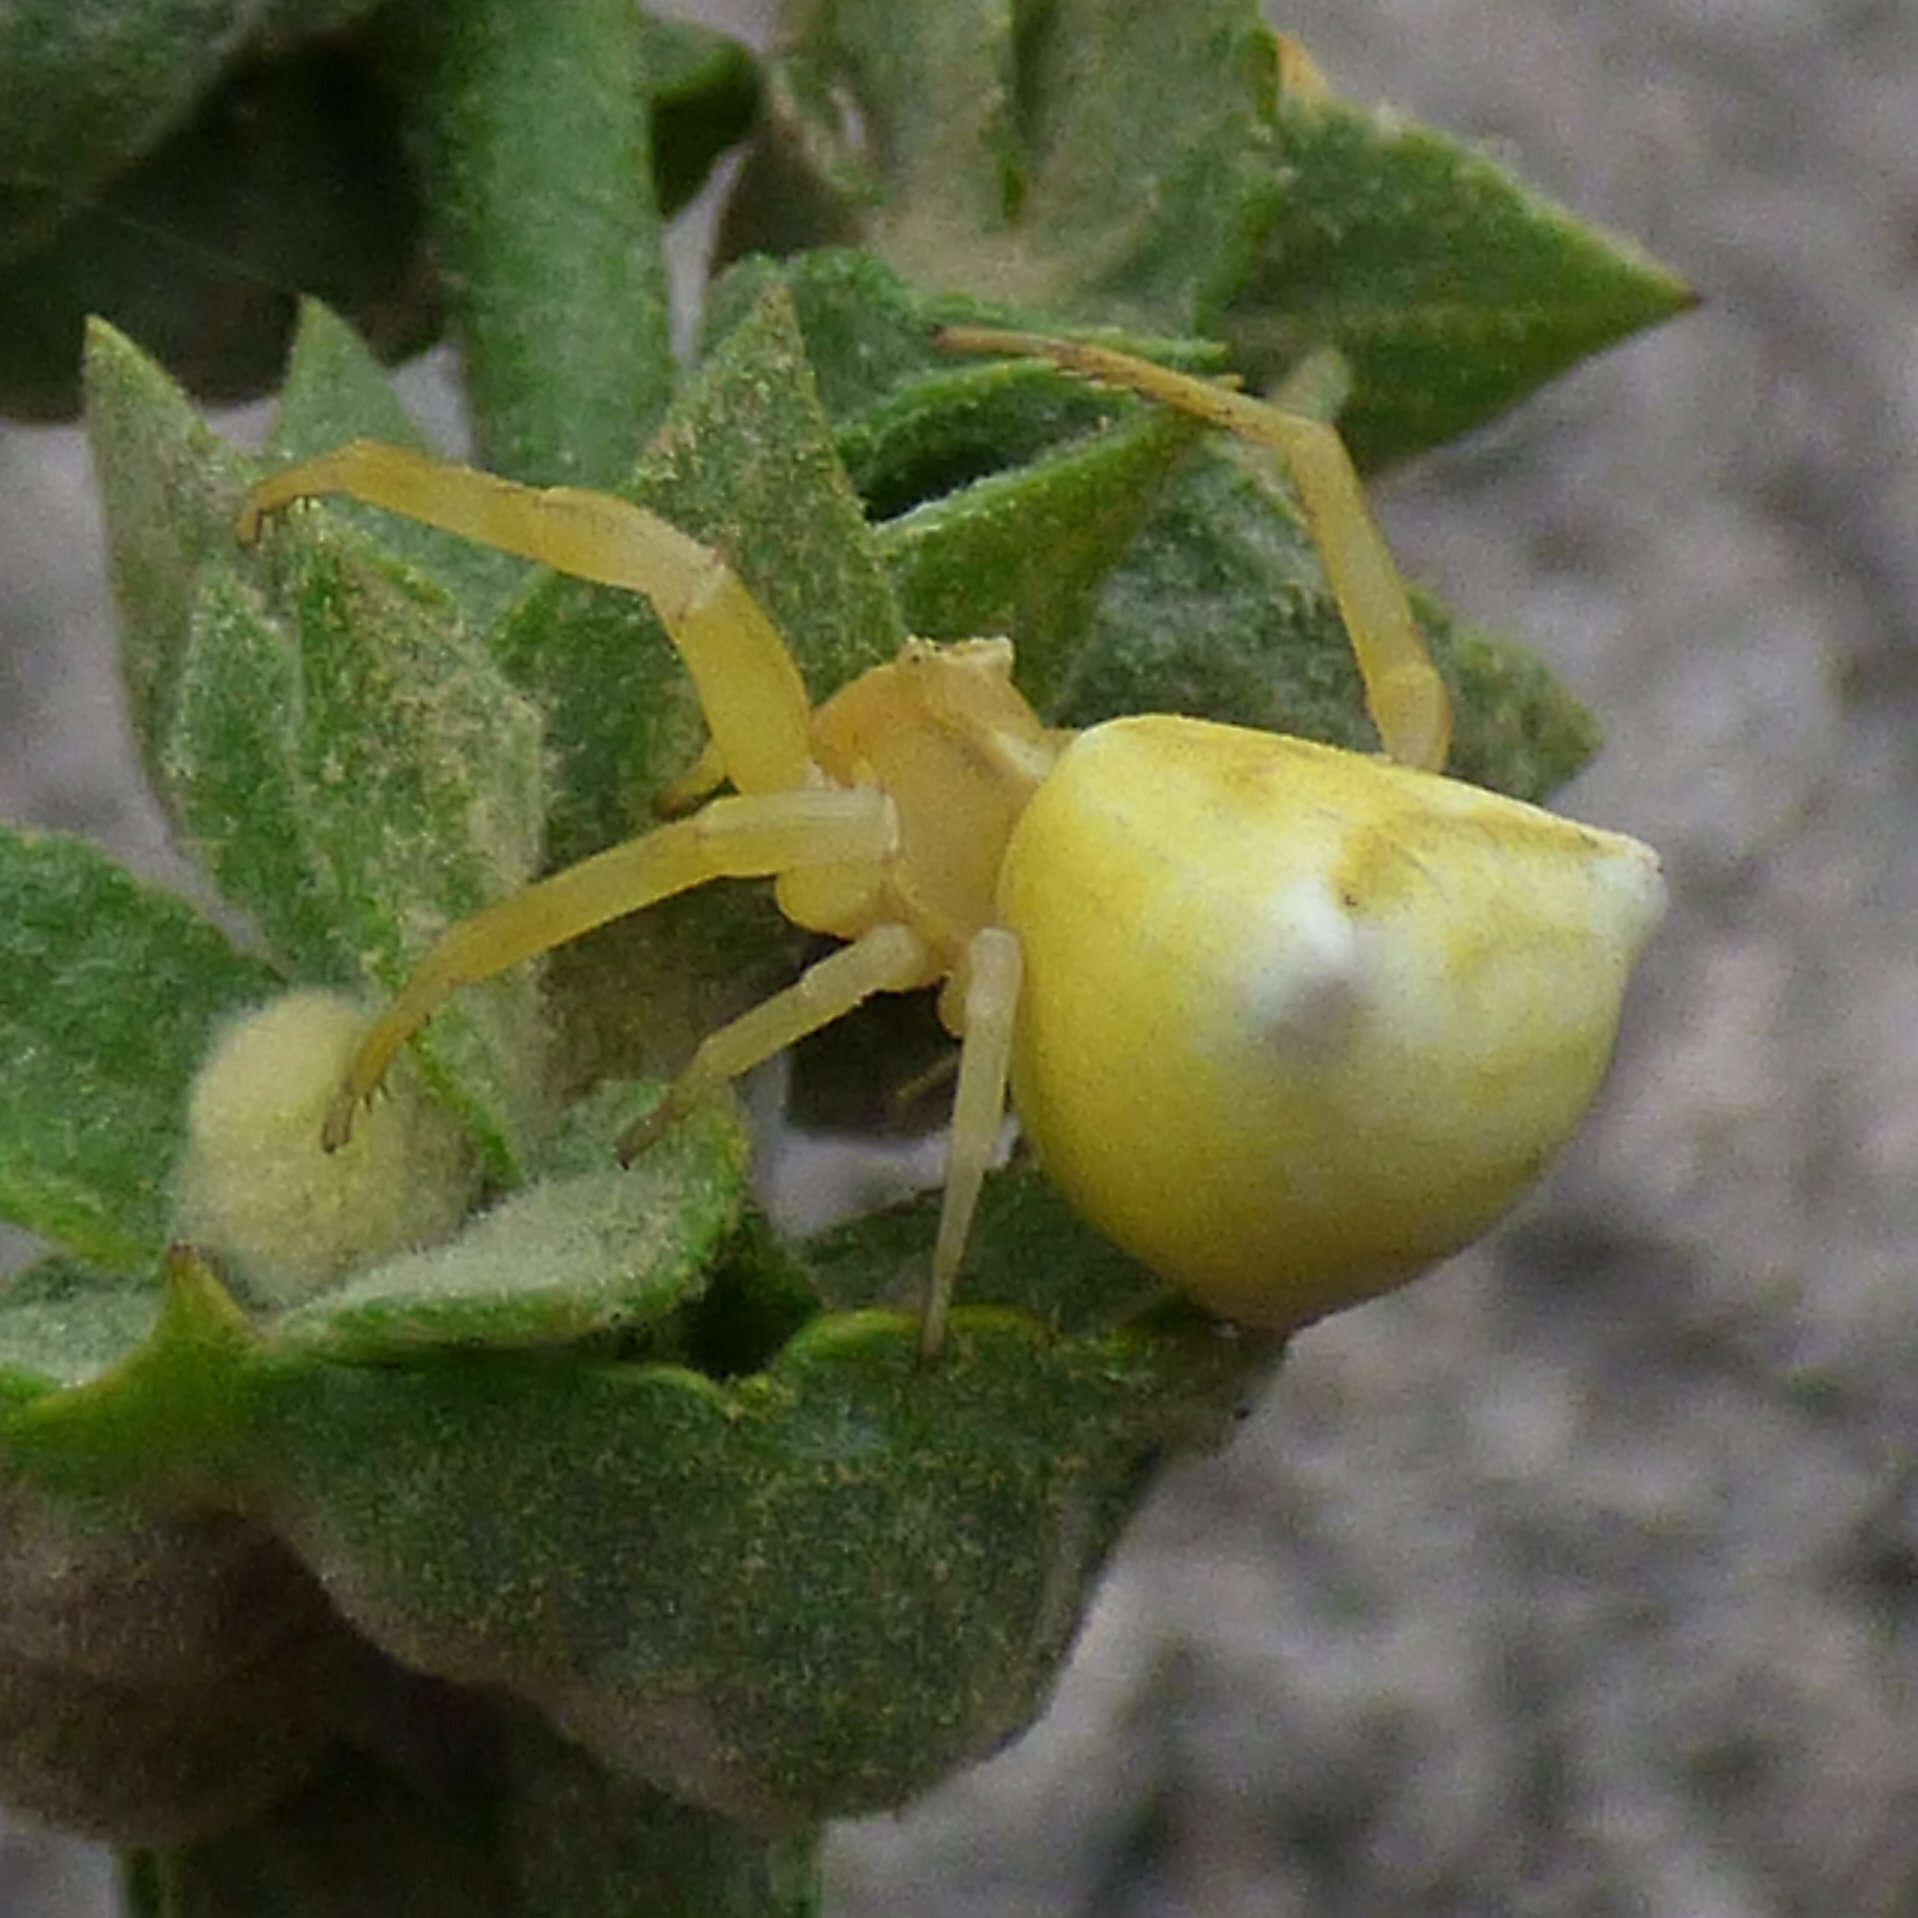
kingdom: Animalia
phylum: Arthropoda
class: Arachnida
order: Araneae
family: Thomisidae
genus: Thomisus
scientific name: Thomisus onustus
